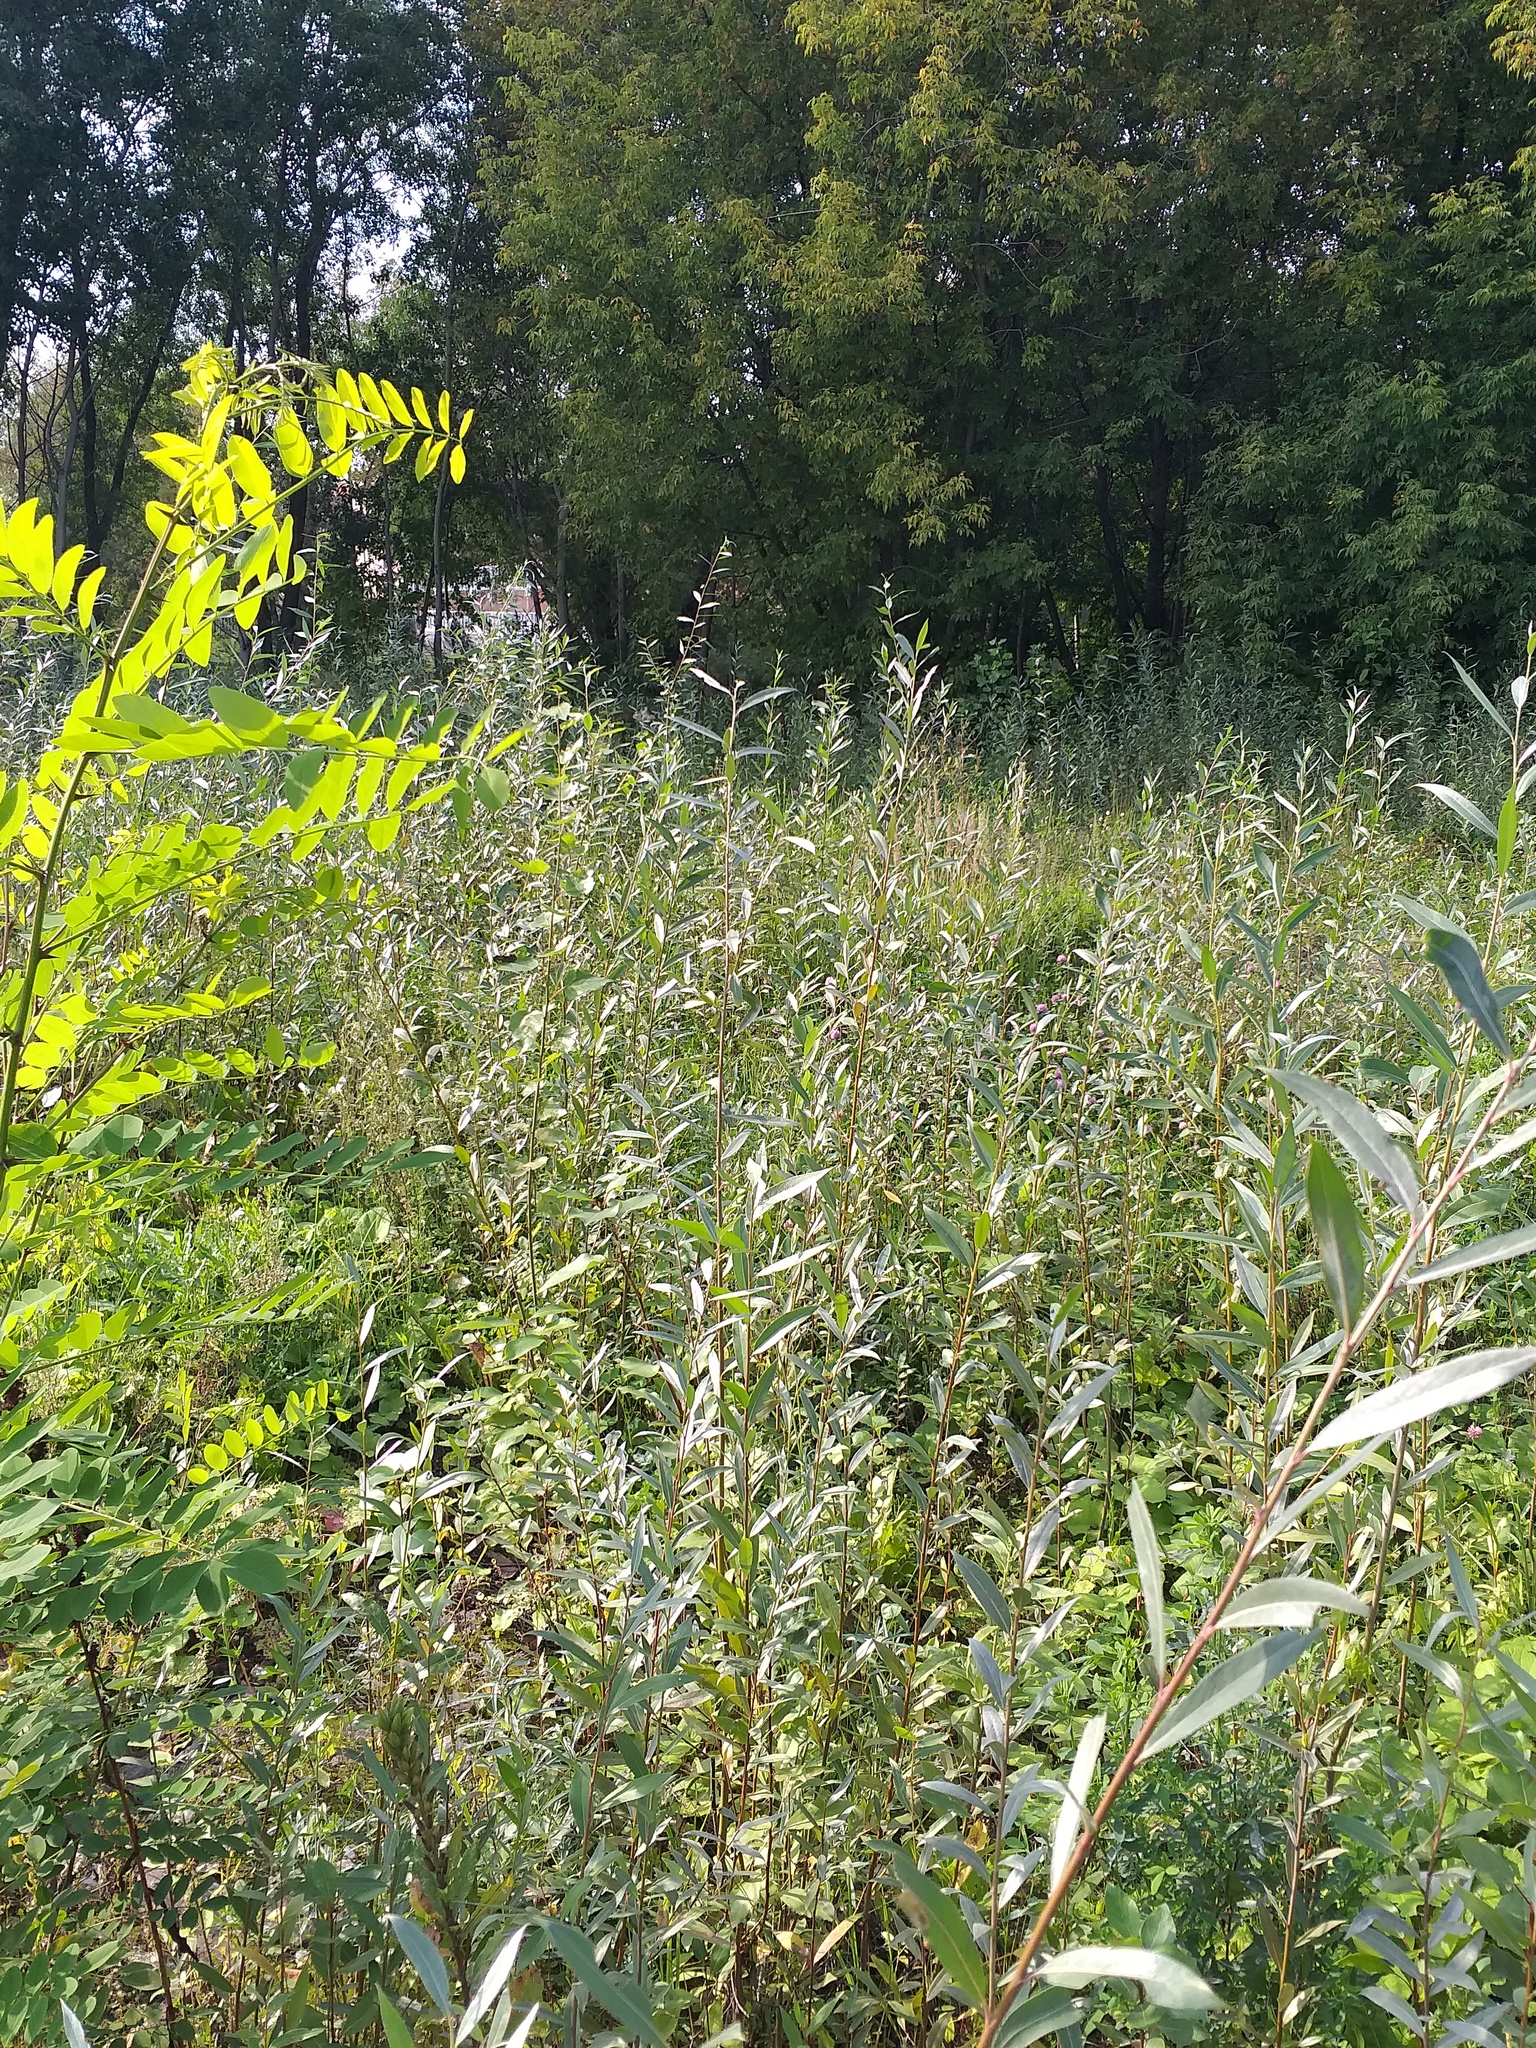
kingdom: Plantae
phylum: Tracheophyta
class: Magnoliopsida
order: Malpighiales
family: Salicaceae
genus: Salix
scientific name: Salix alba
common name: White willow
